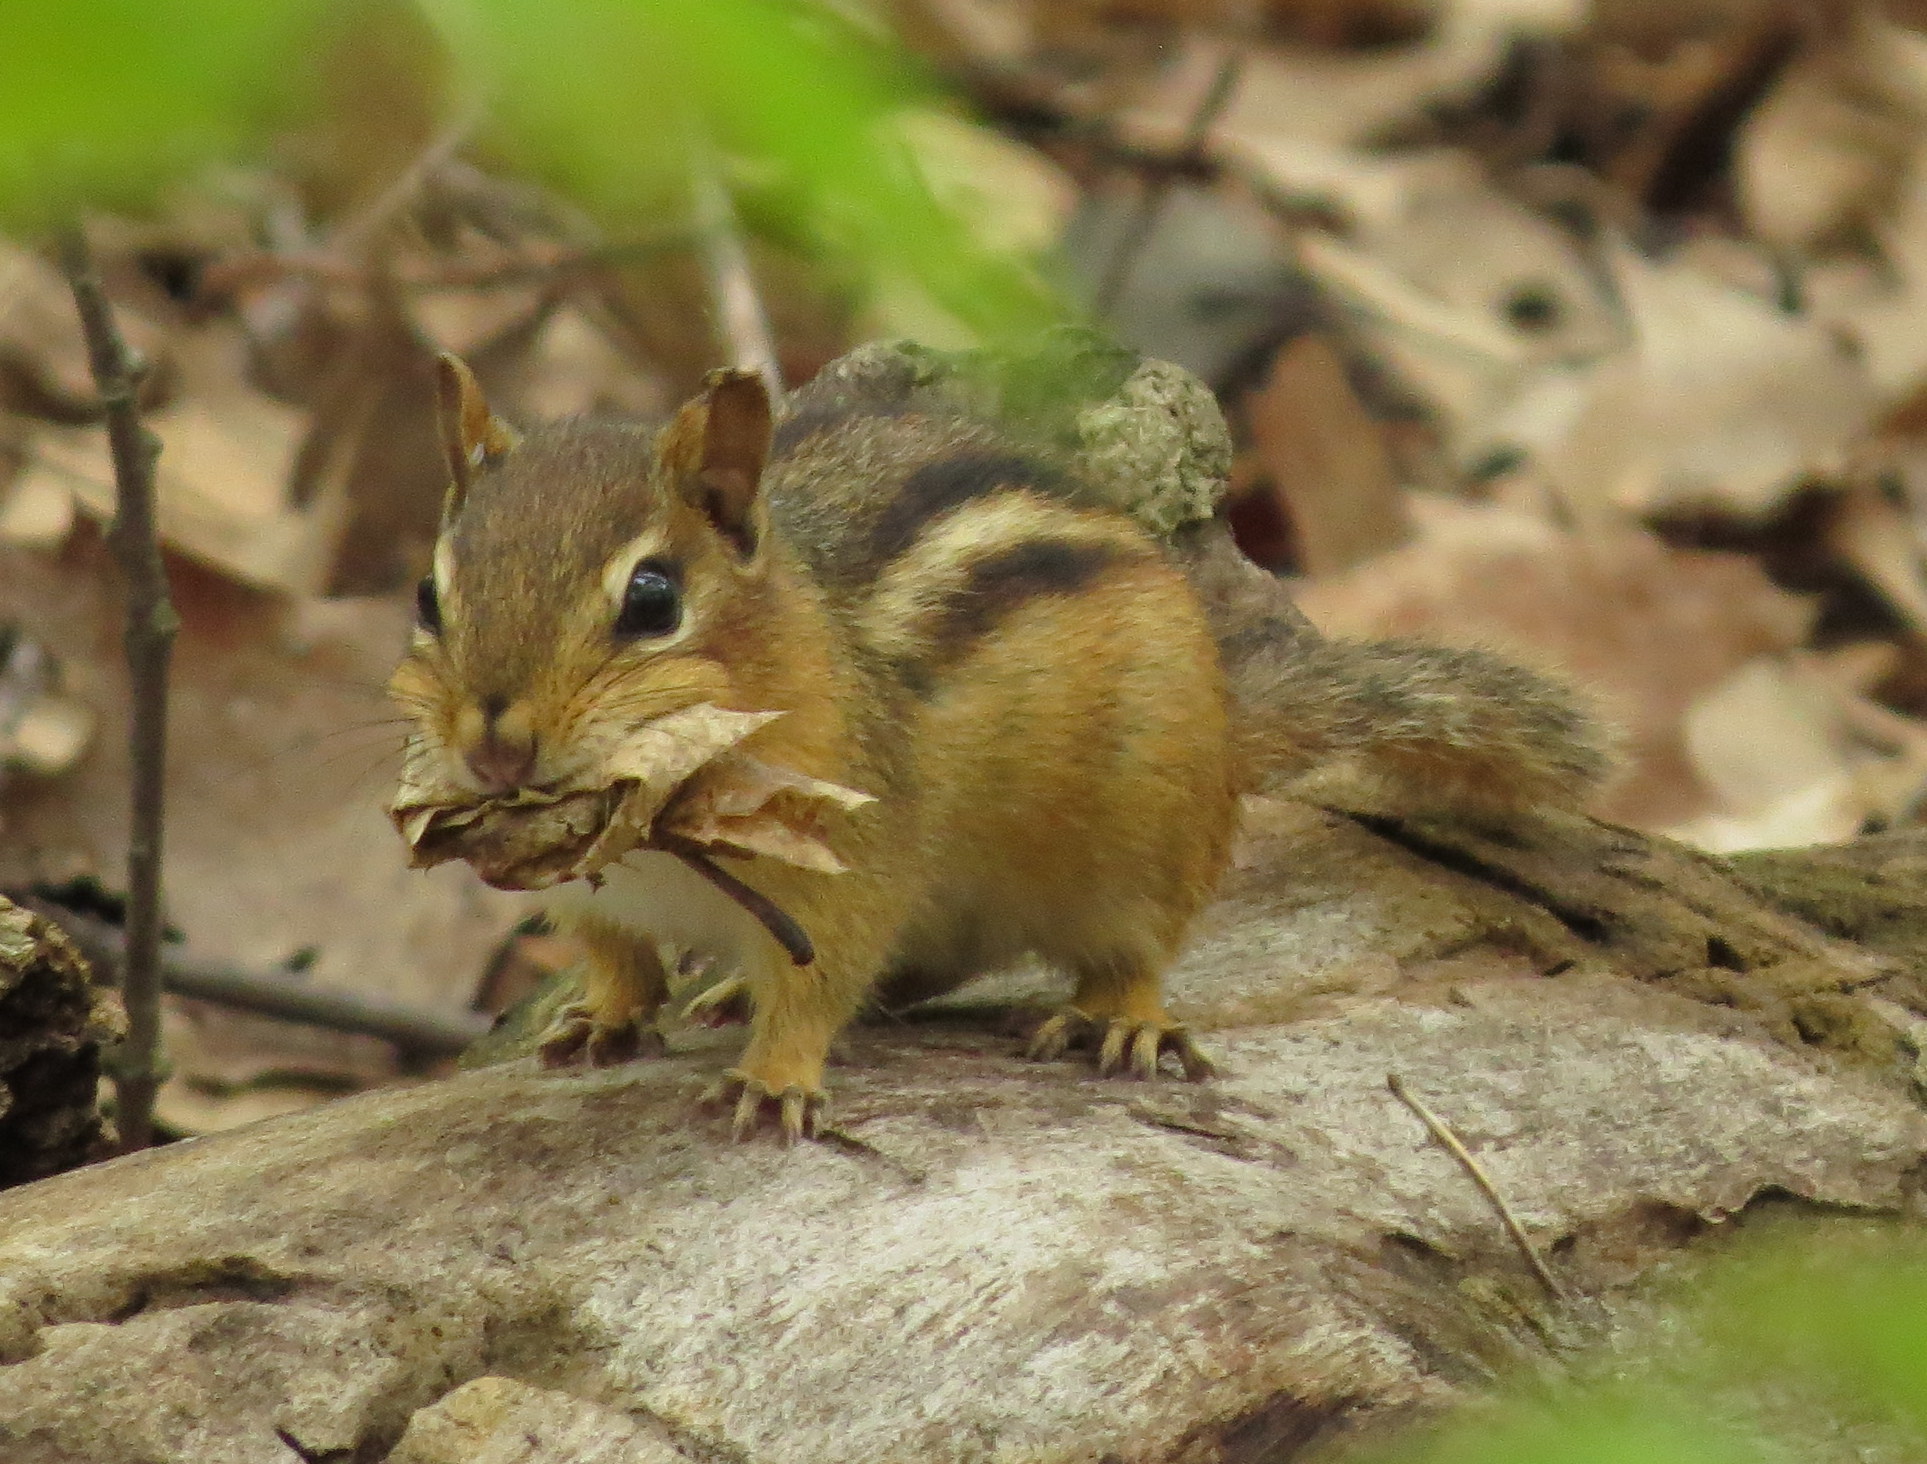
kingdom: Animalia
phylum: Chordata
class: Mammalia
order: Rodentia
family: Sciuridae
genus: Tamias
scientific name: Tamias striatus
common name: Eastern chipmunk
